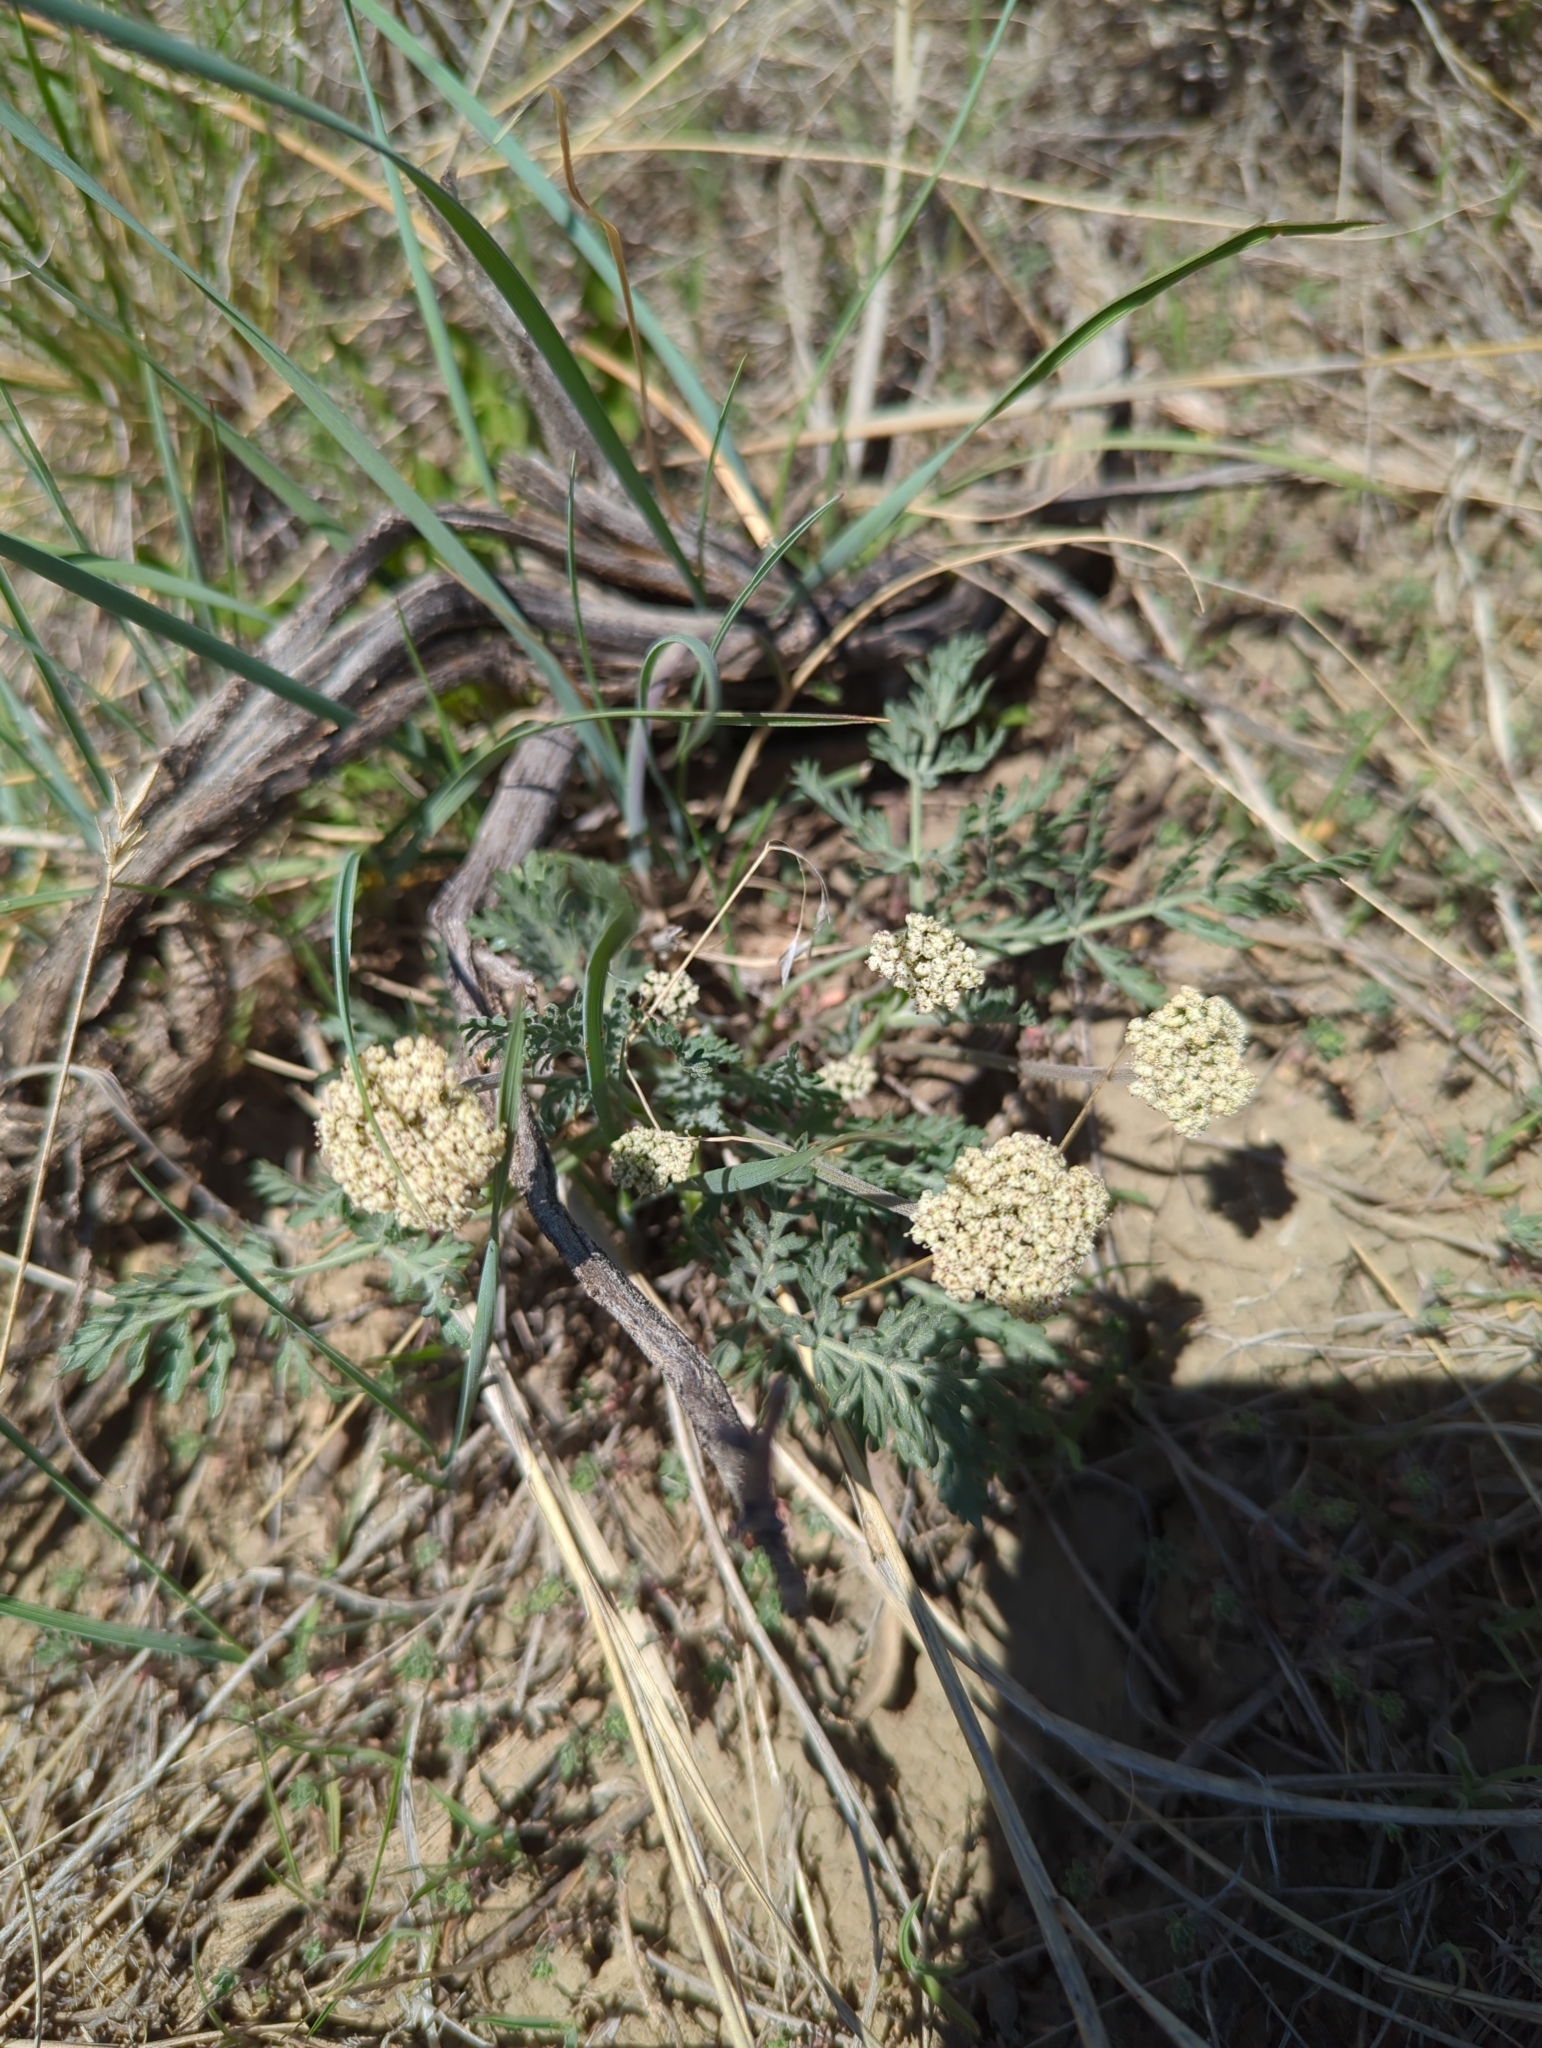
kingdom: Plantae
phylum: Tracheophyta
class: Magnoliopsida
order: Apiales
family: Apiaceae
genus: Lomatium
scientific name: Lomatium orientale
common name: Eastern cous
